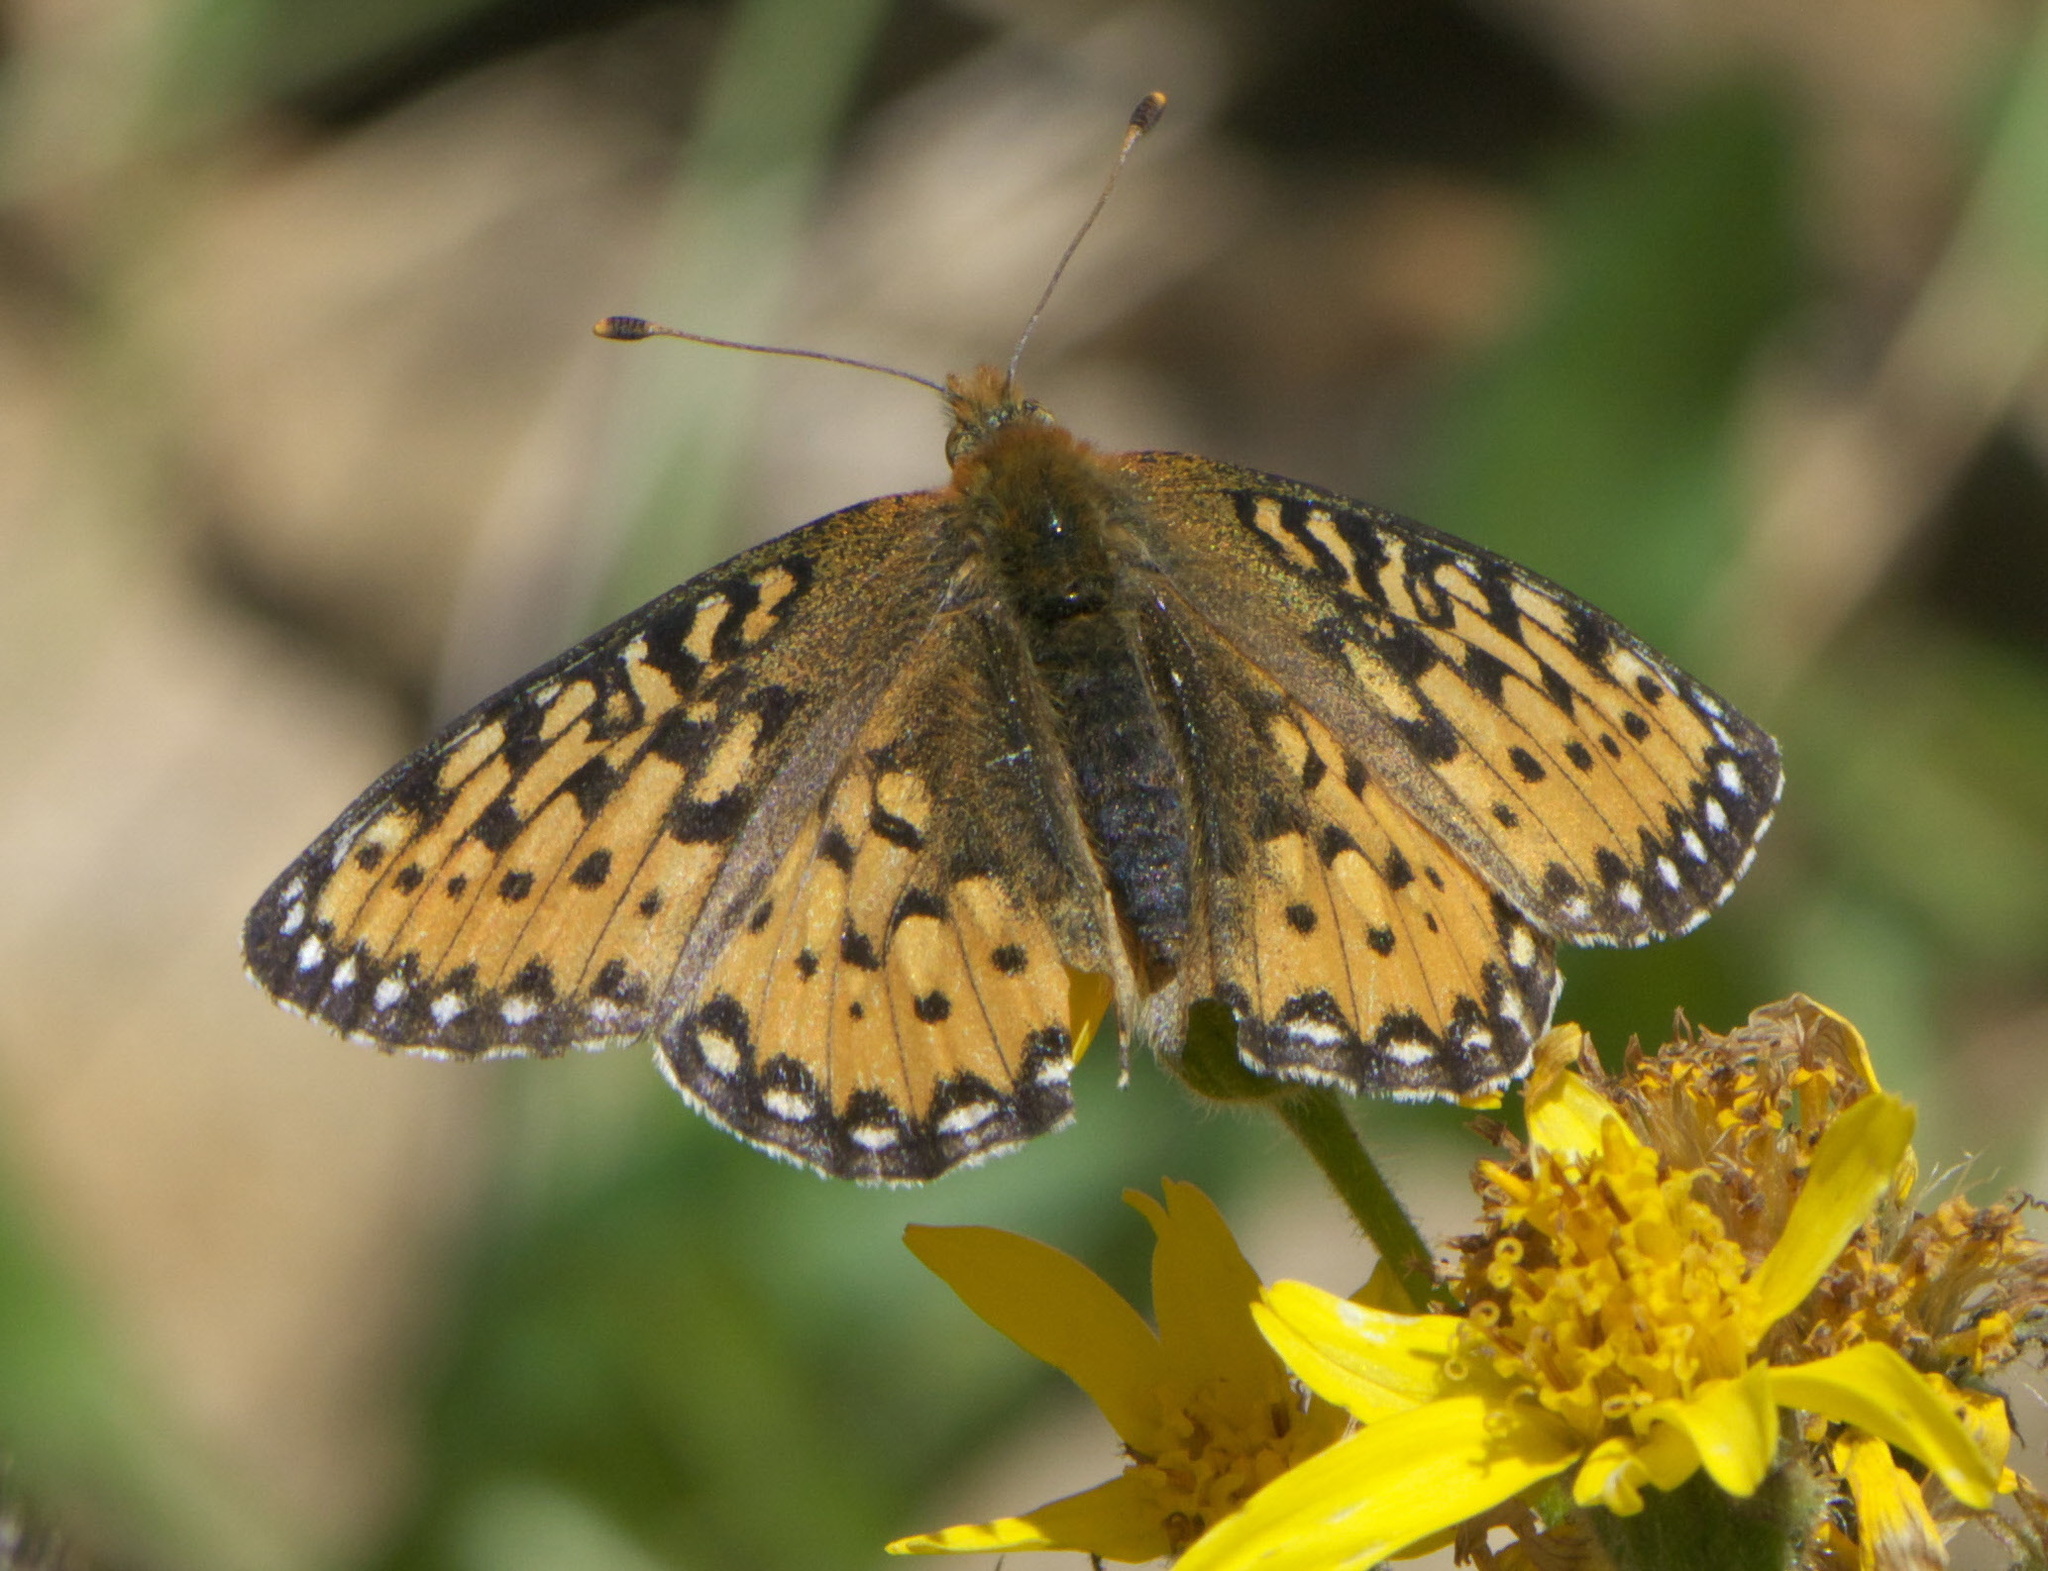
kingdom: Animalia
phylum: Arthropoda
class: Insecta
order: Lepidoptera
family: Nymphalidae
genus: Speyeria
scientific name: Speyeria mormonia
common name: Mormon fritillary
